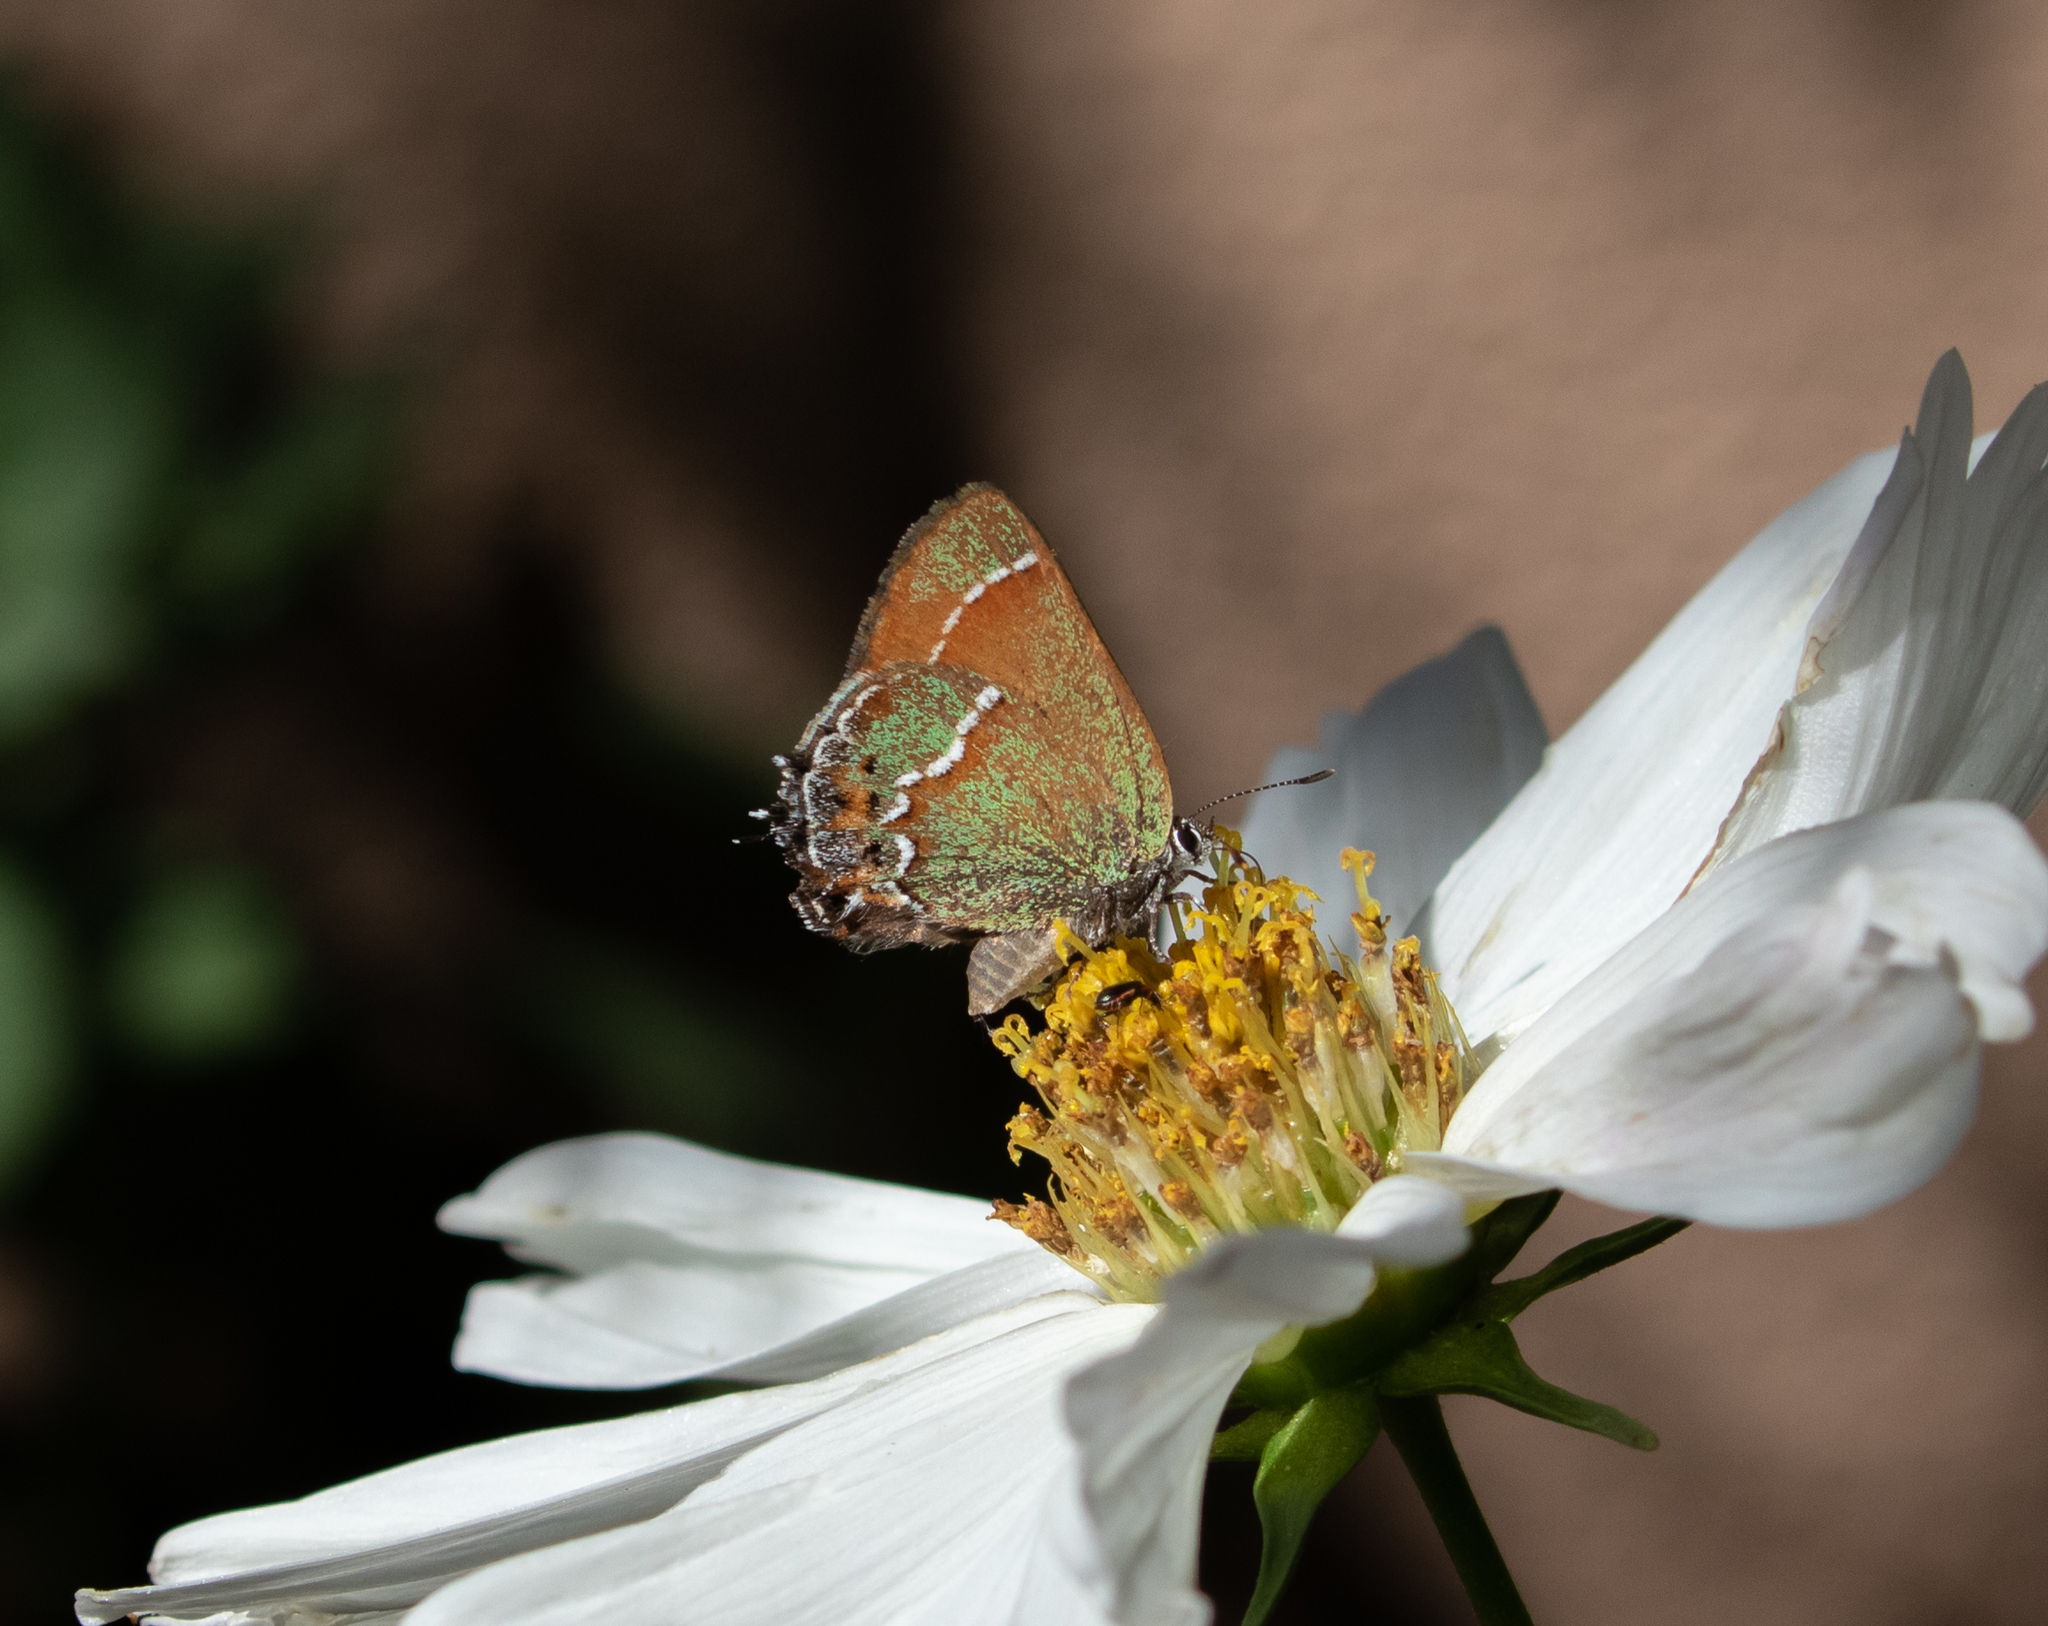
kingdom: Animalia
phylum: Arthropoda
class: Insecta
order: Lepidoptera
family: Lycaenidae
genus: Mitoura
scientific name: Mitoura gryneus
